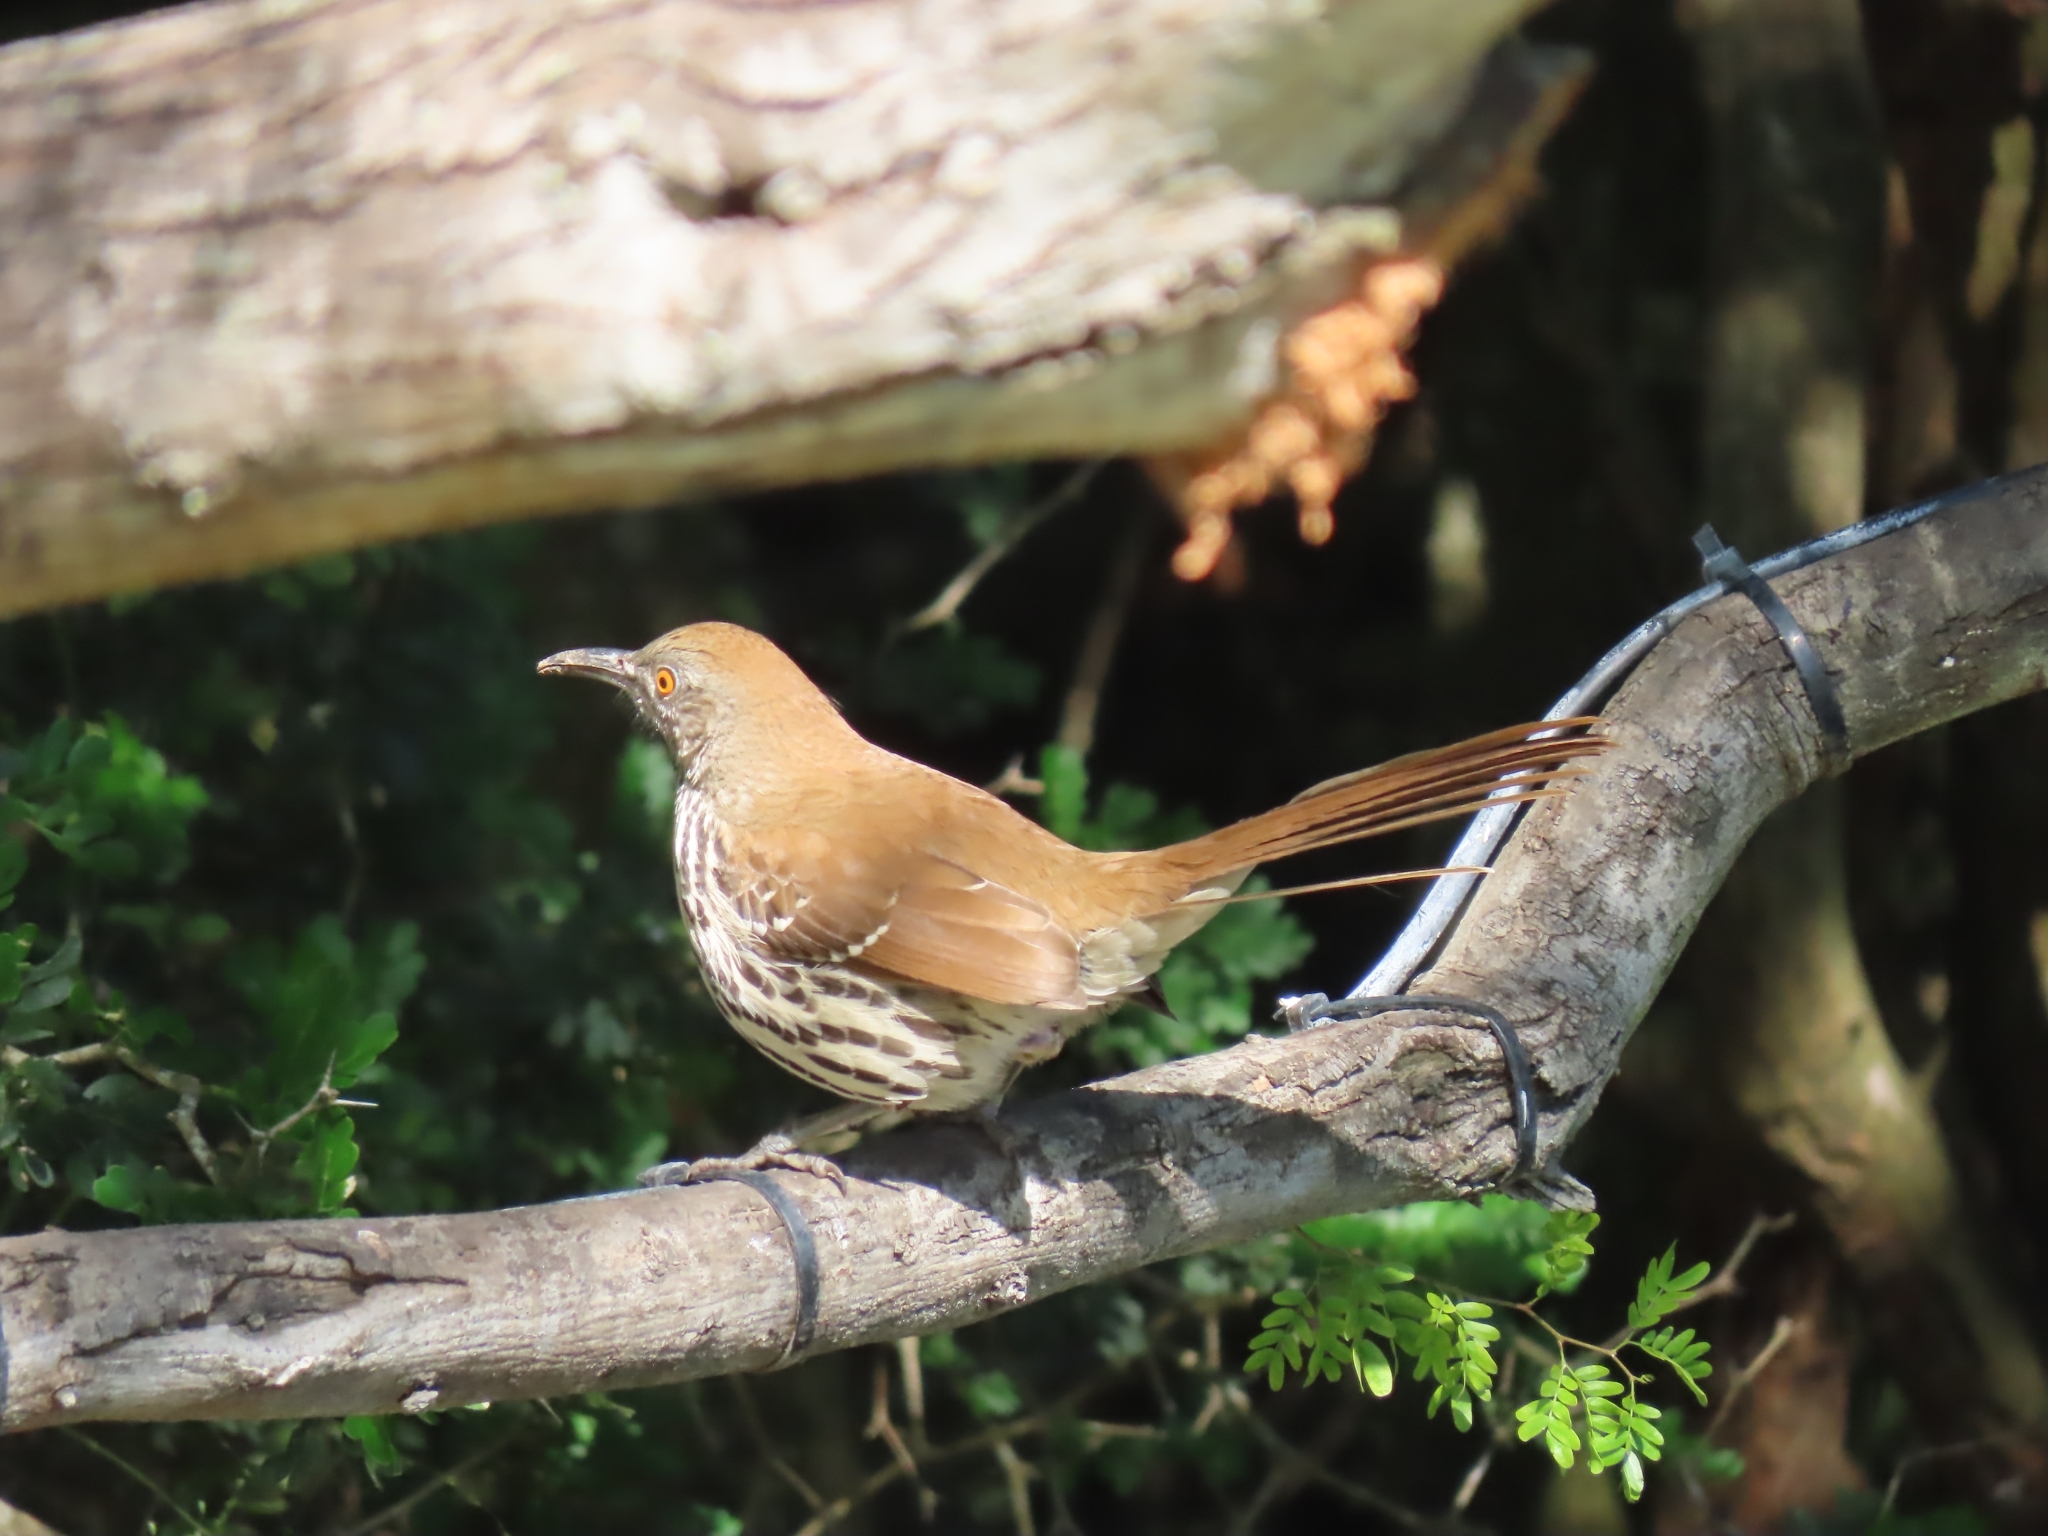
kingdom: Animalia
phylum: Chordata
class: Aves
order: Passeriformes
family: Mimidae
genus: Toxostoma
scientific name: Toxostoma longirostre
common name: Long-billed thrasher
